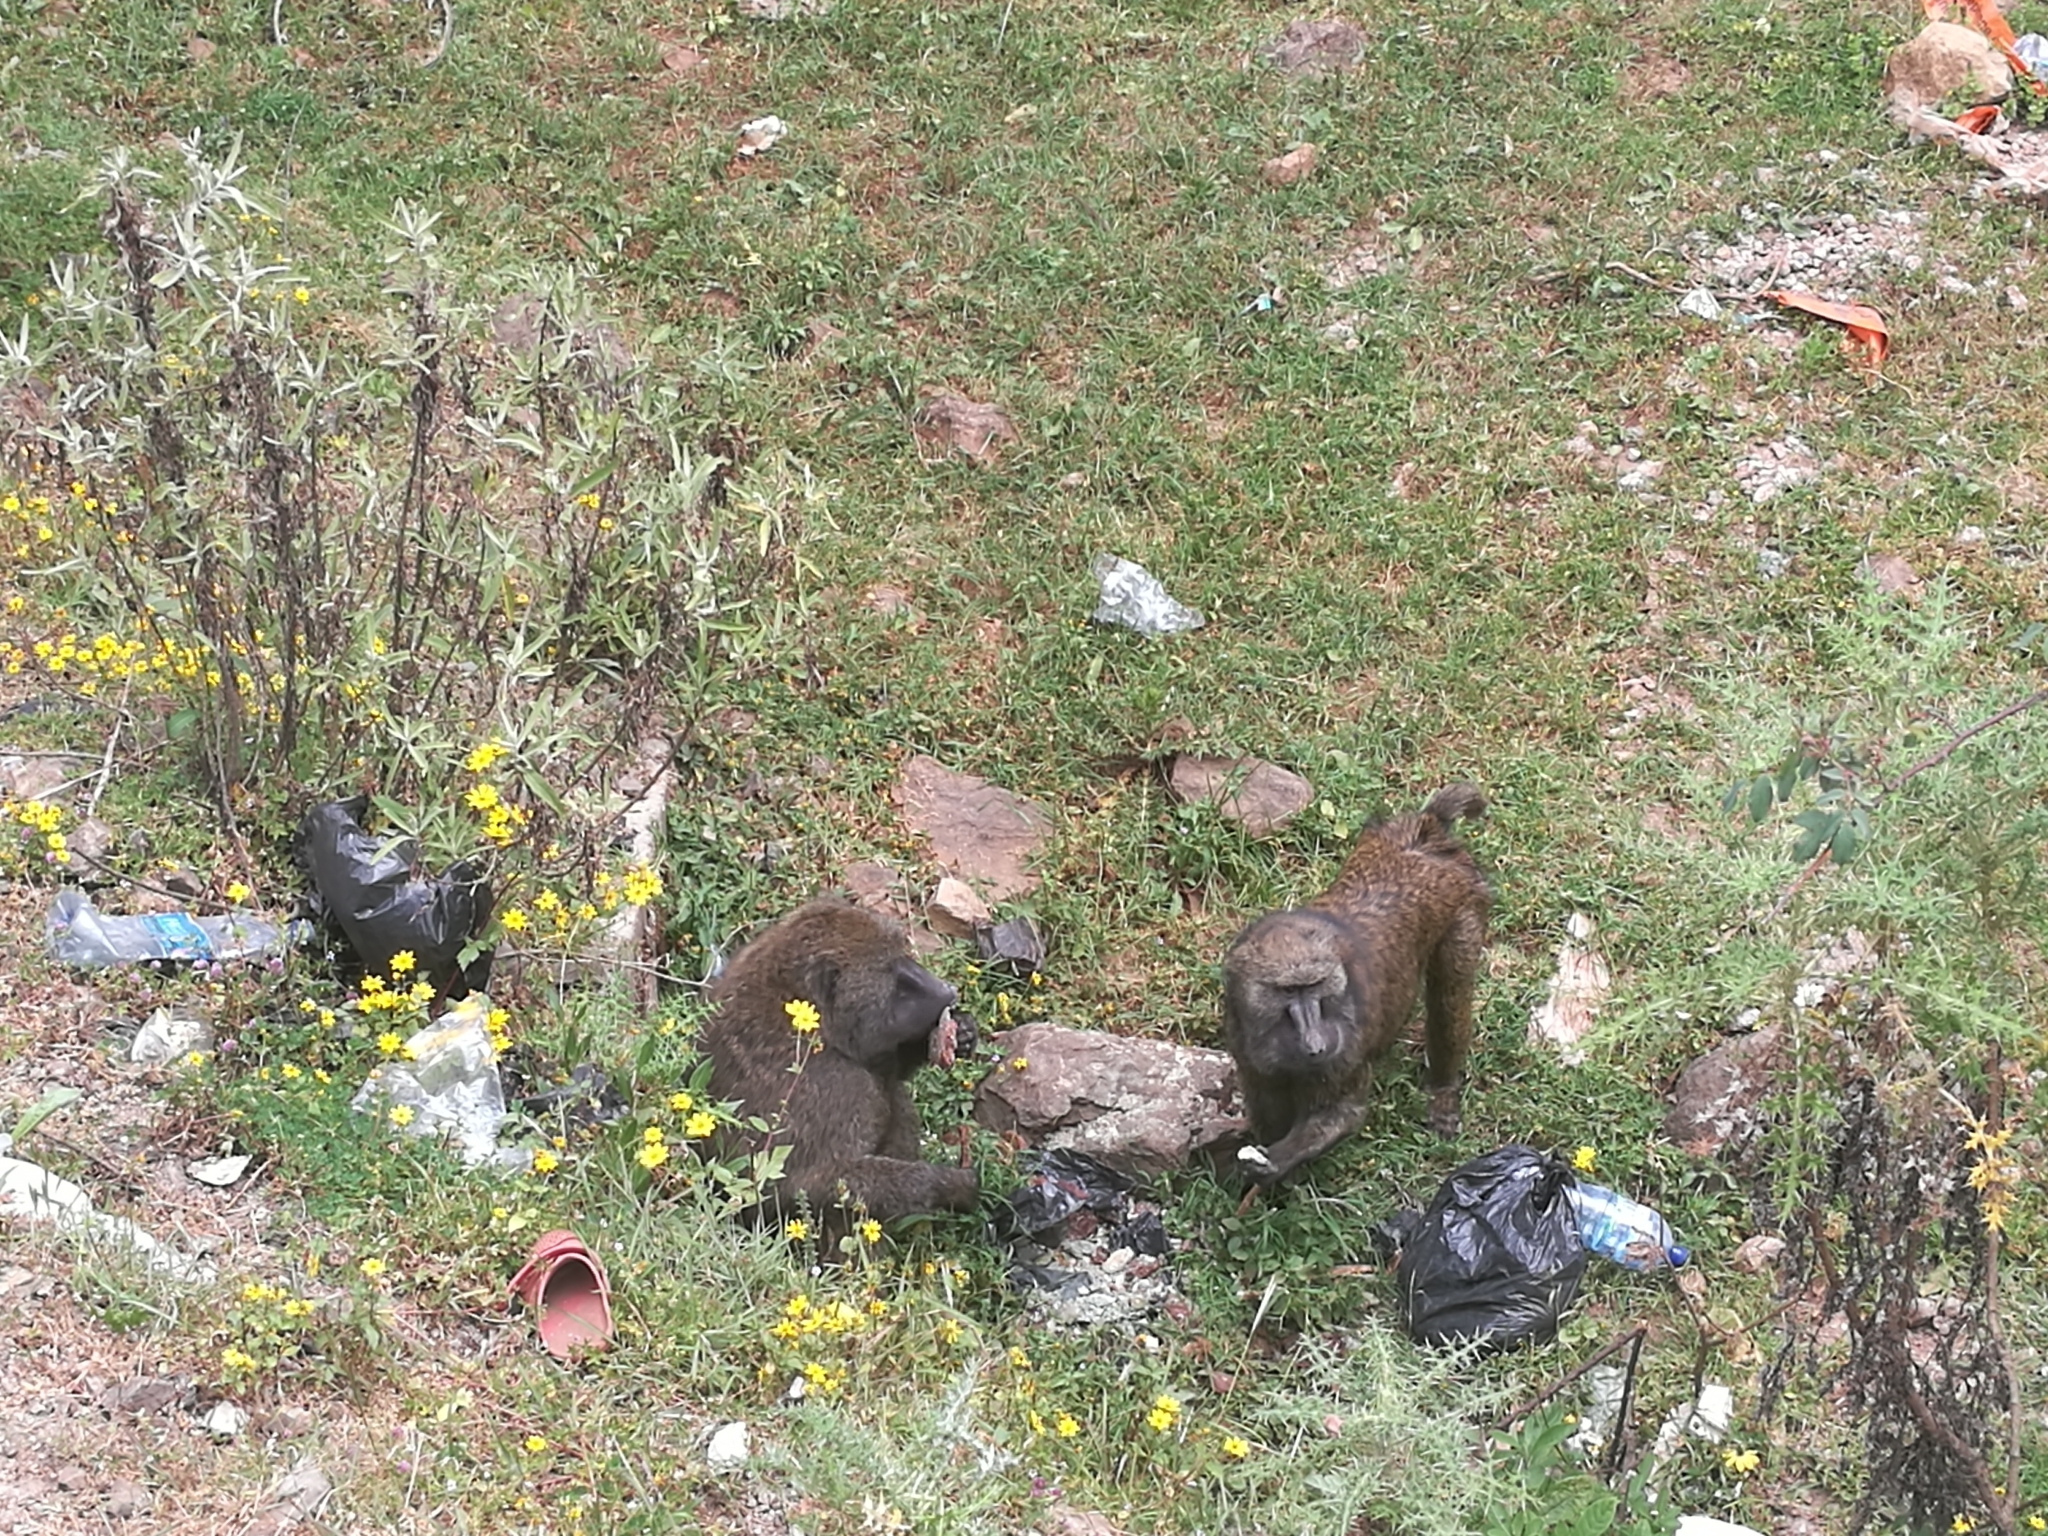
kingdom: Animalia
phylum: Chordata
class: Mammalia
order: Primates
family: Cercopithecidae
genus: Papio
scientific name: Papio anubis
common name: Olive baboon
